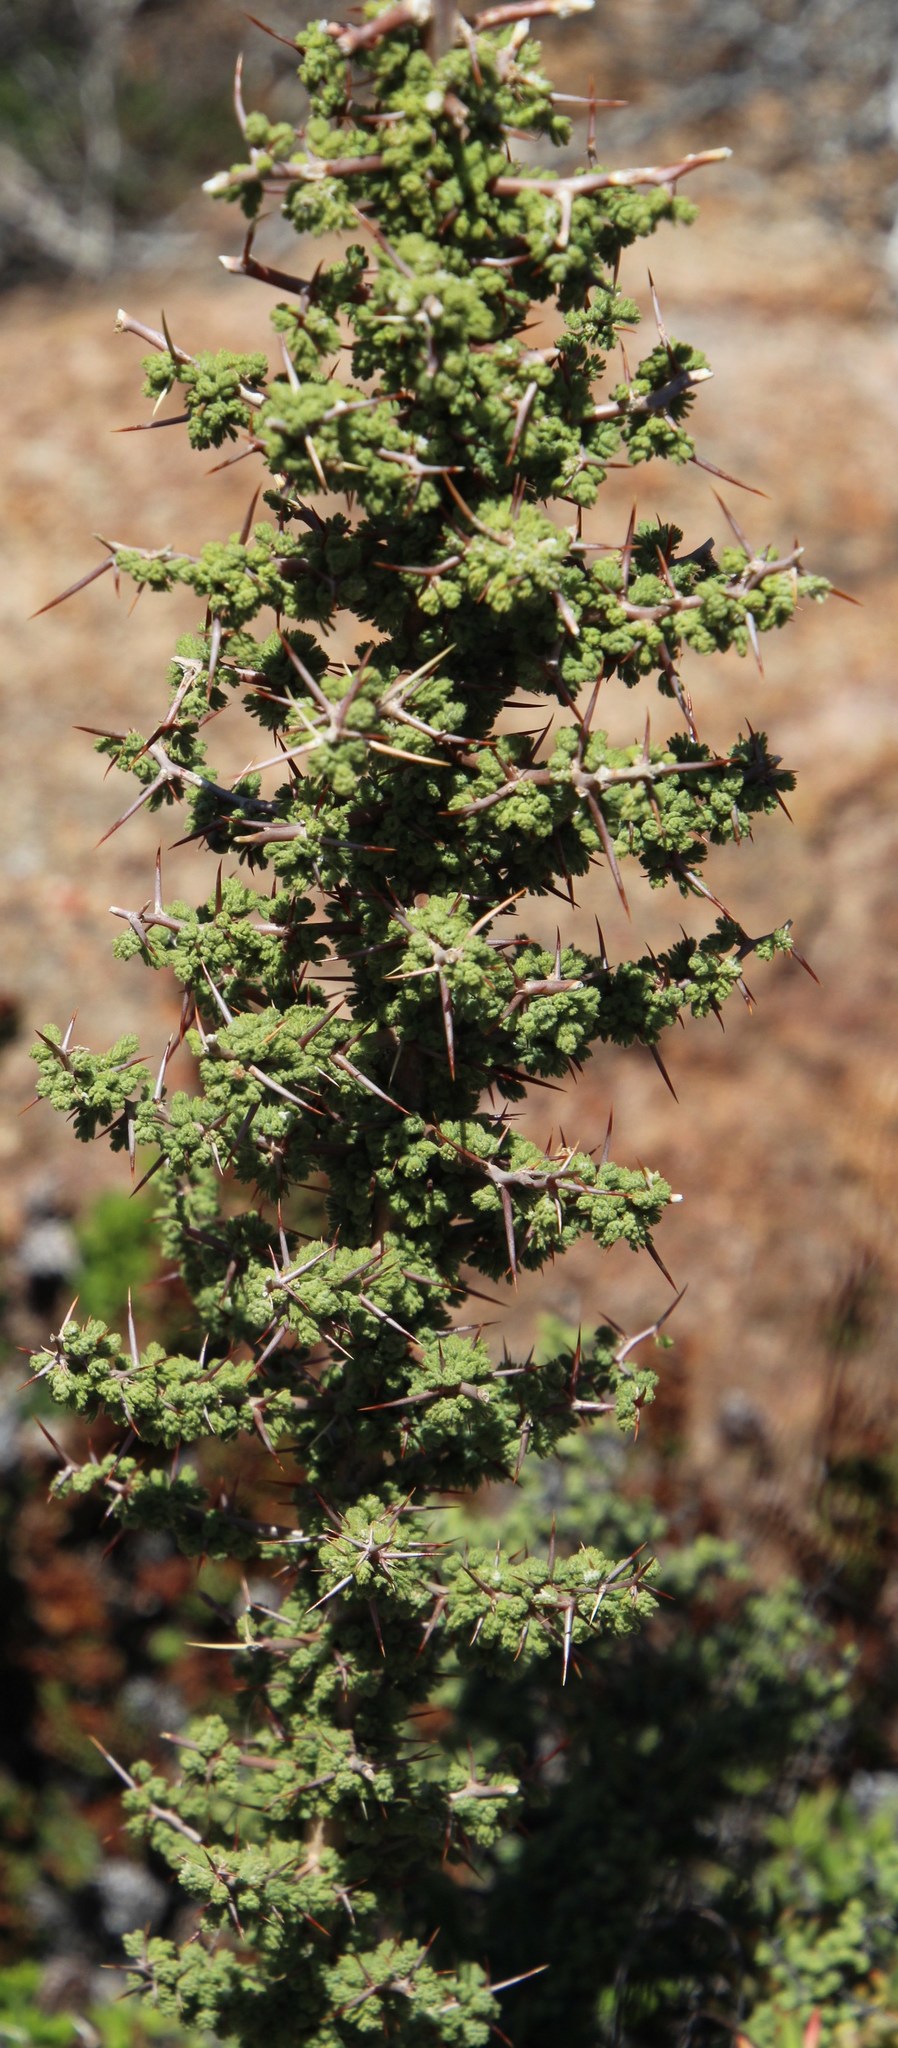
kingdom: Plantae
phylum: Tracheophyta
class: Liliopsida
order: Asparagales
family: Asparagaceae
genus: Asparagus
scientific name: Asparagus capensis
